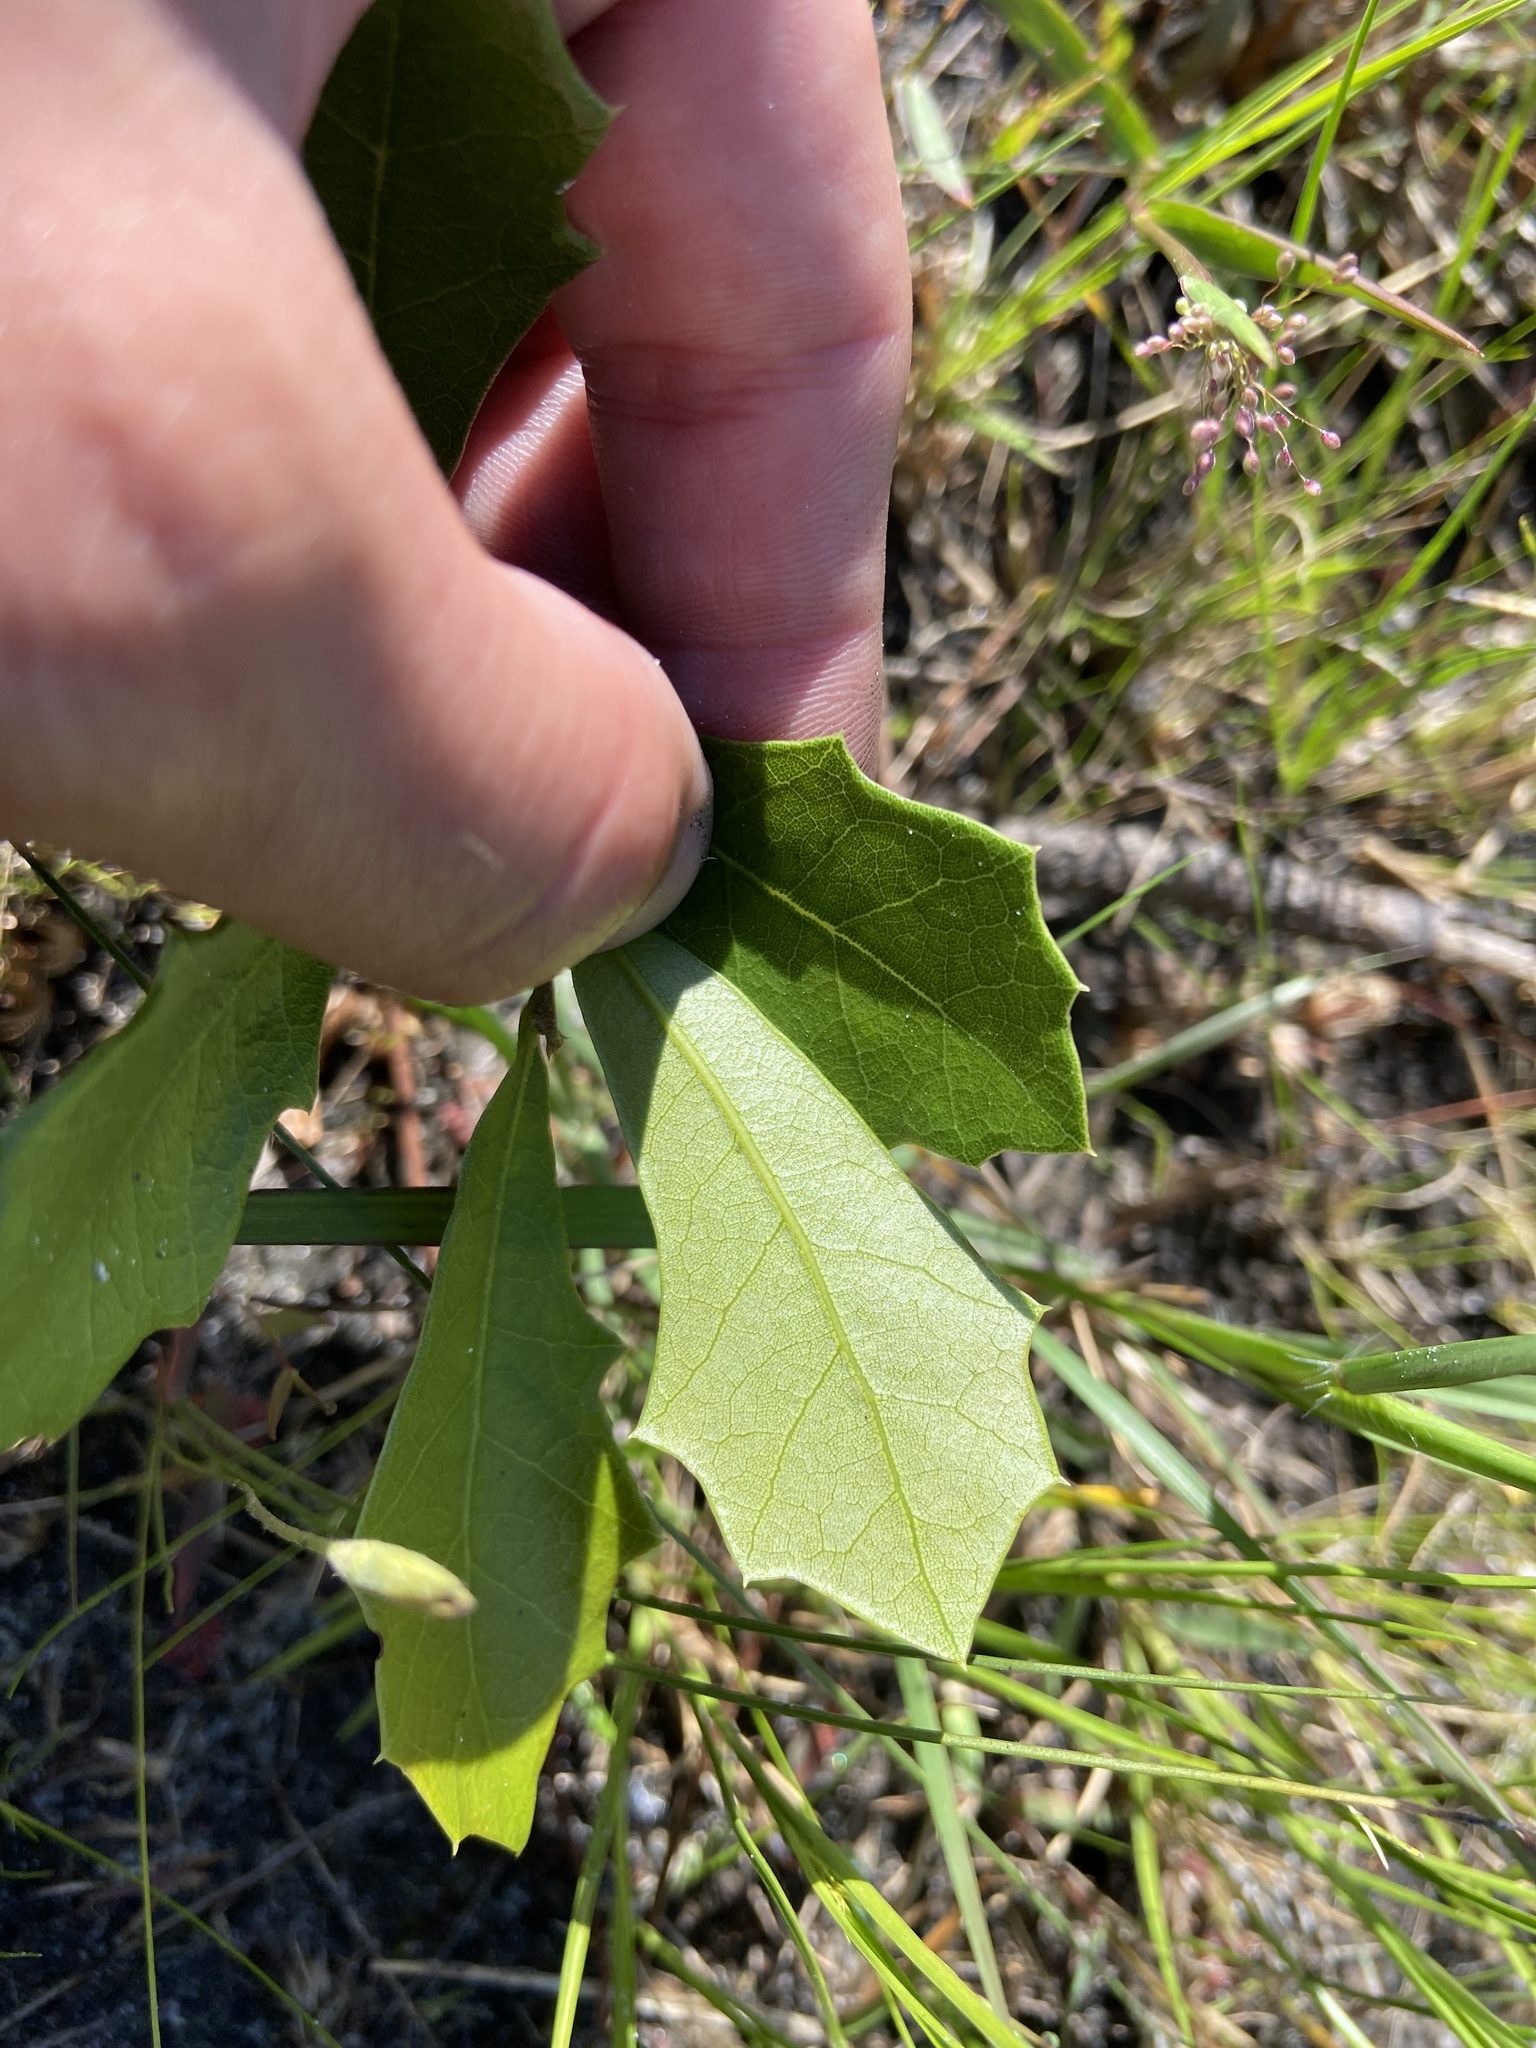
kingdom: Plantae
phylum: Tracheophyta
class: Magnoliopsida
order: Fagales
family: Fagaceae
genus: Quercus
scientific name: Quercus minima
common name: Dwarf live oak
